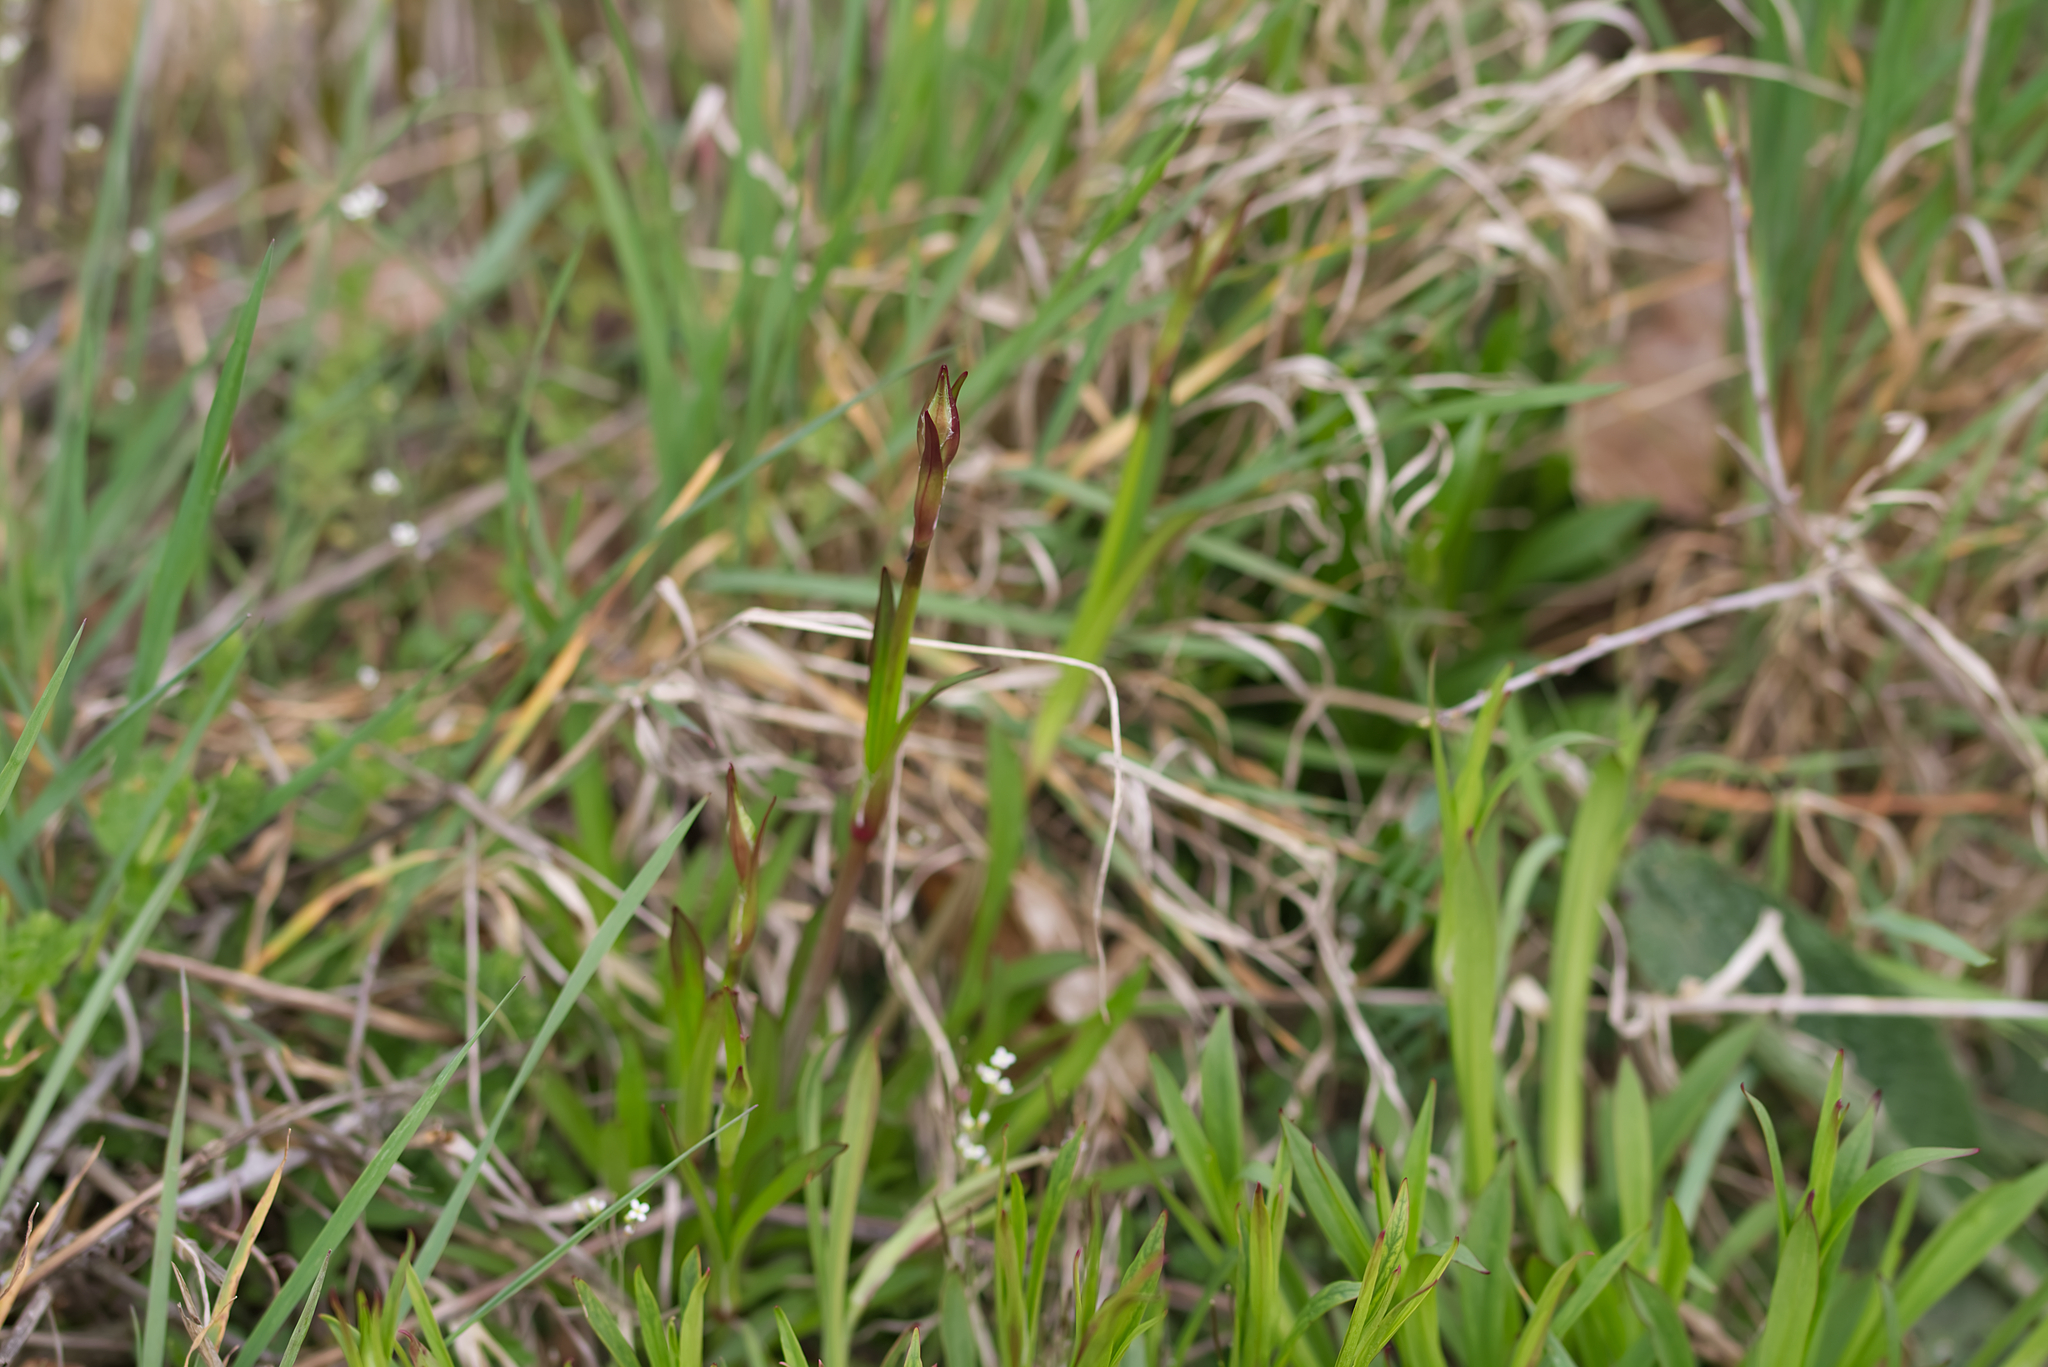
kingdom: Plantae
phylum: Tracheophyta
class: Magnoliopsida
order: Caryophyllales
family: Caryophyllaceae
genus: Viscaria
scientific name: Viscaria vulgaris
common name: Clammy campion
